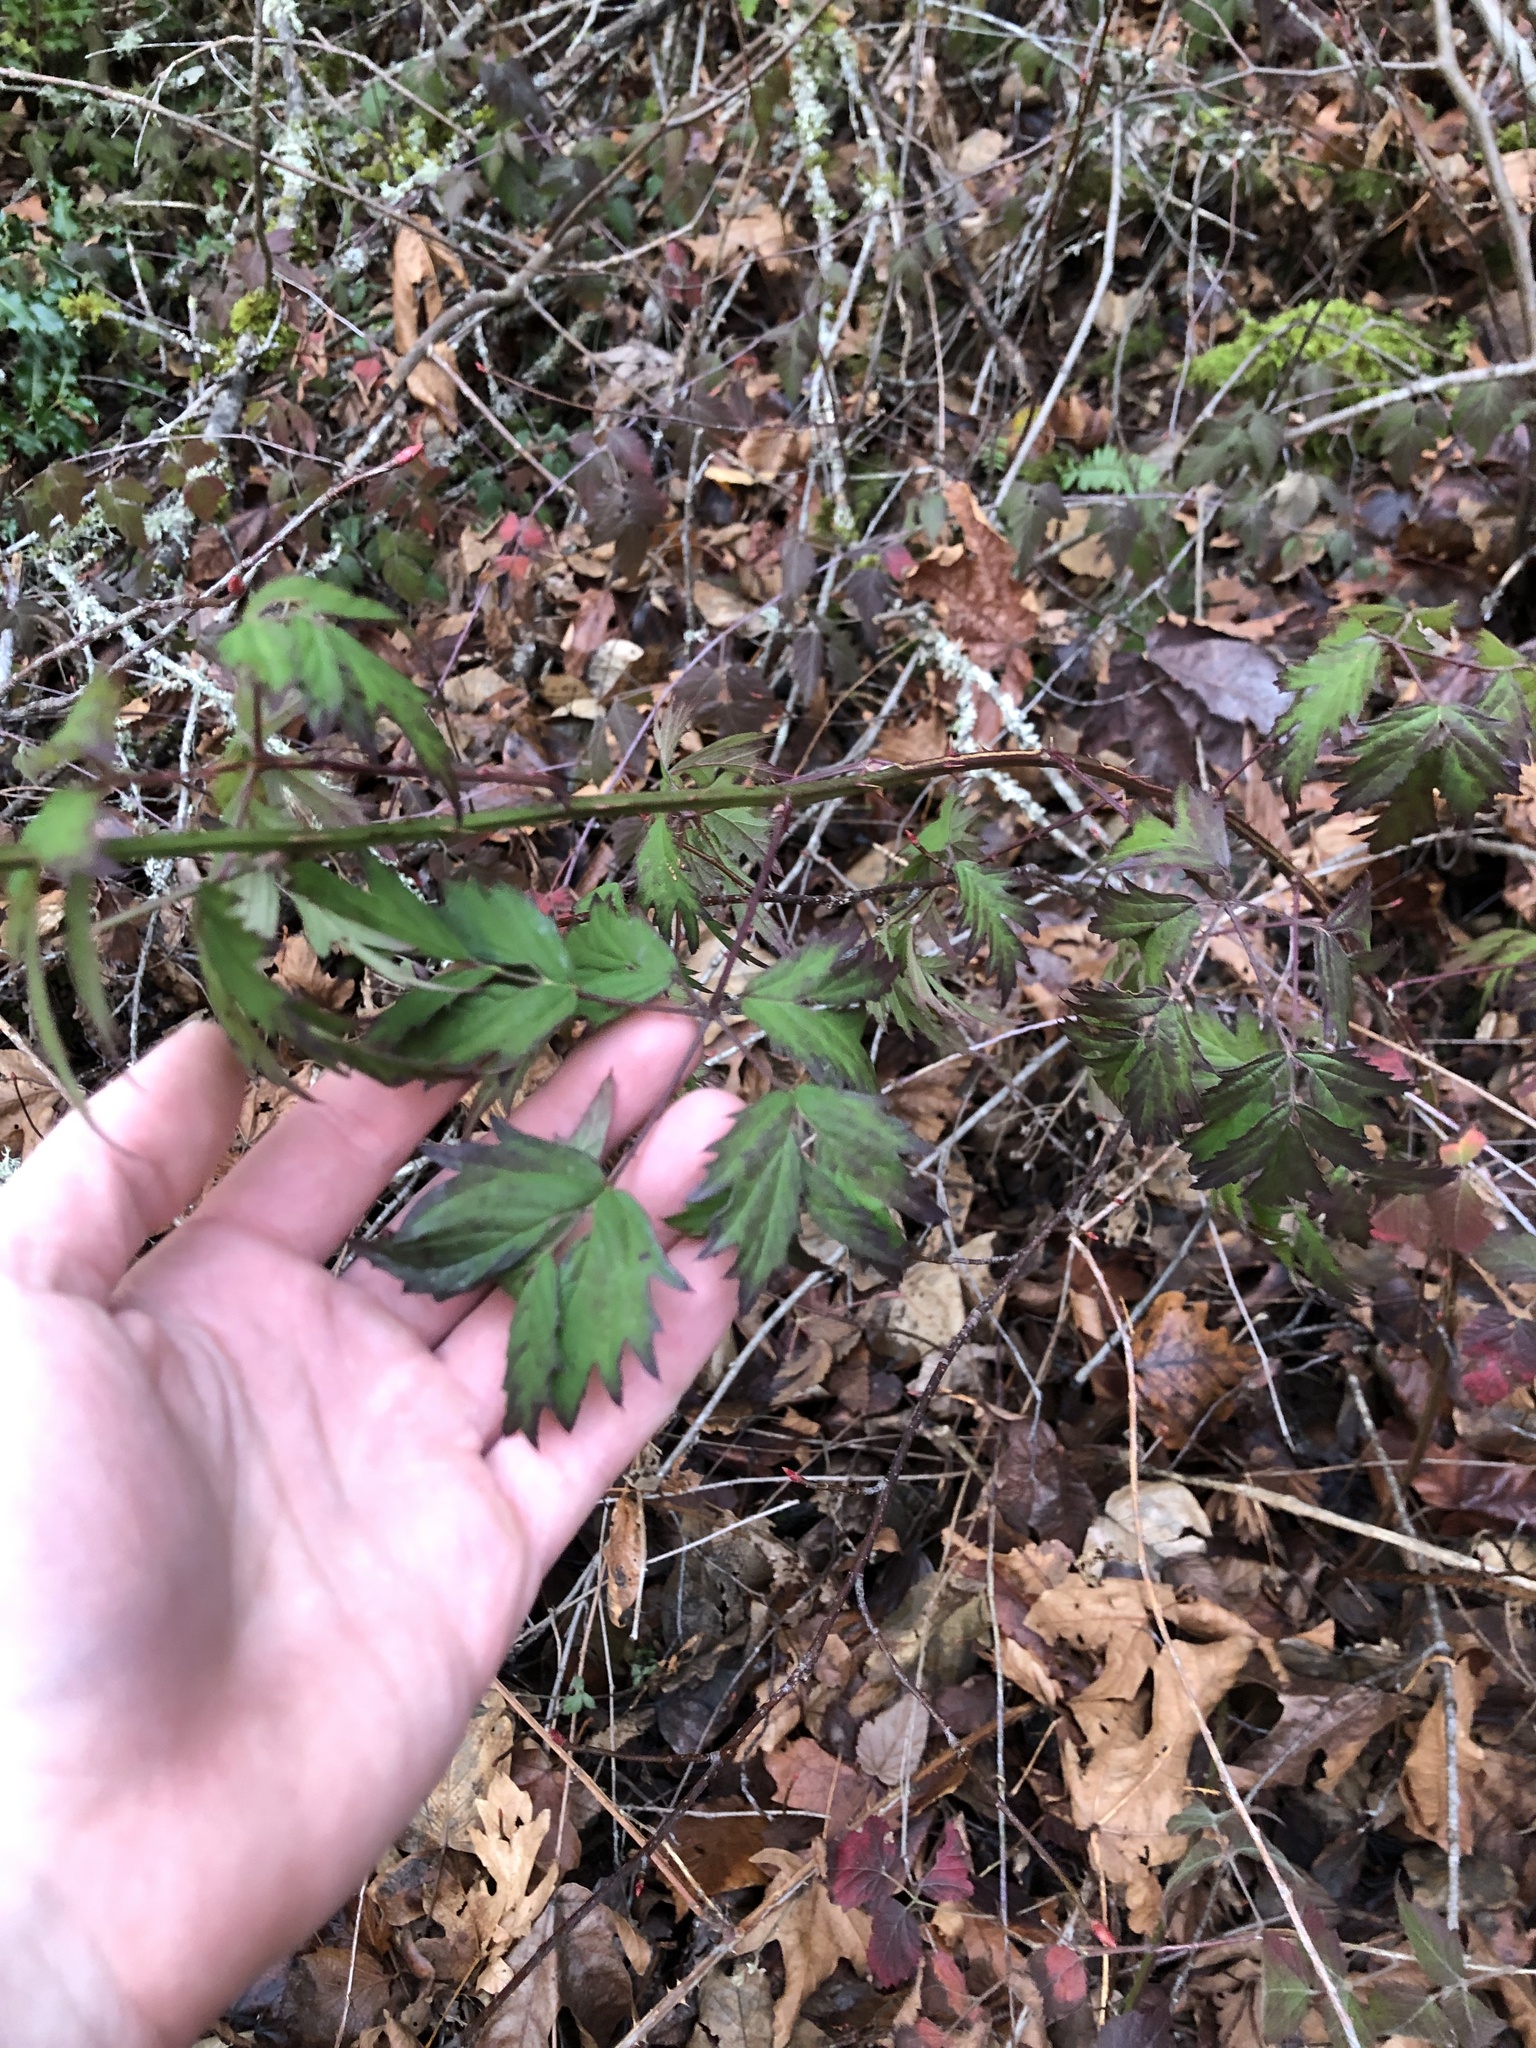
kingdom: Plantae
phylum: Tracheophyta
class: Magnoliopsida
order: Rosales
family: Rosaceae
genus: Rubus
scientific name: Rubus laciniatus
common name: Evergreen blackberry
